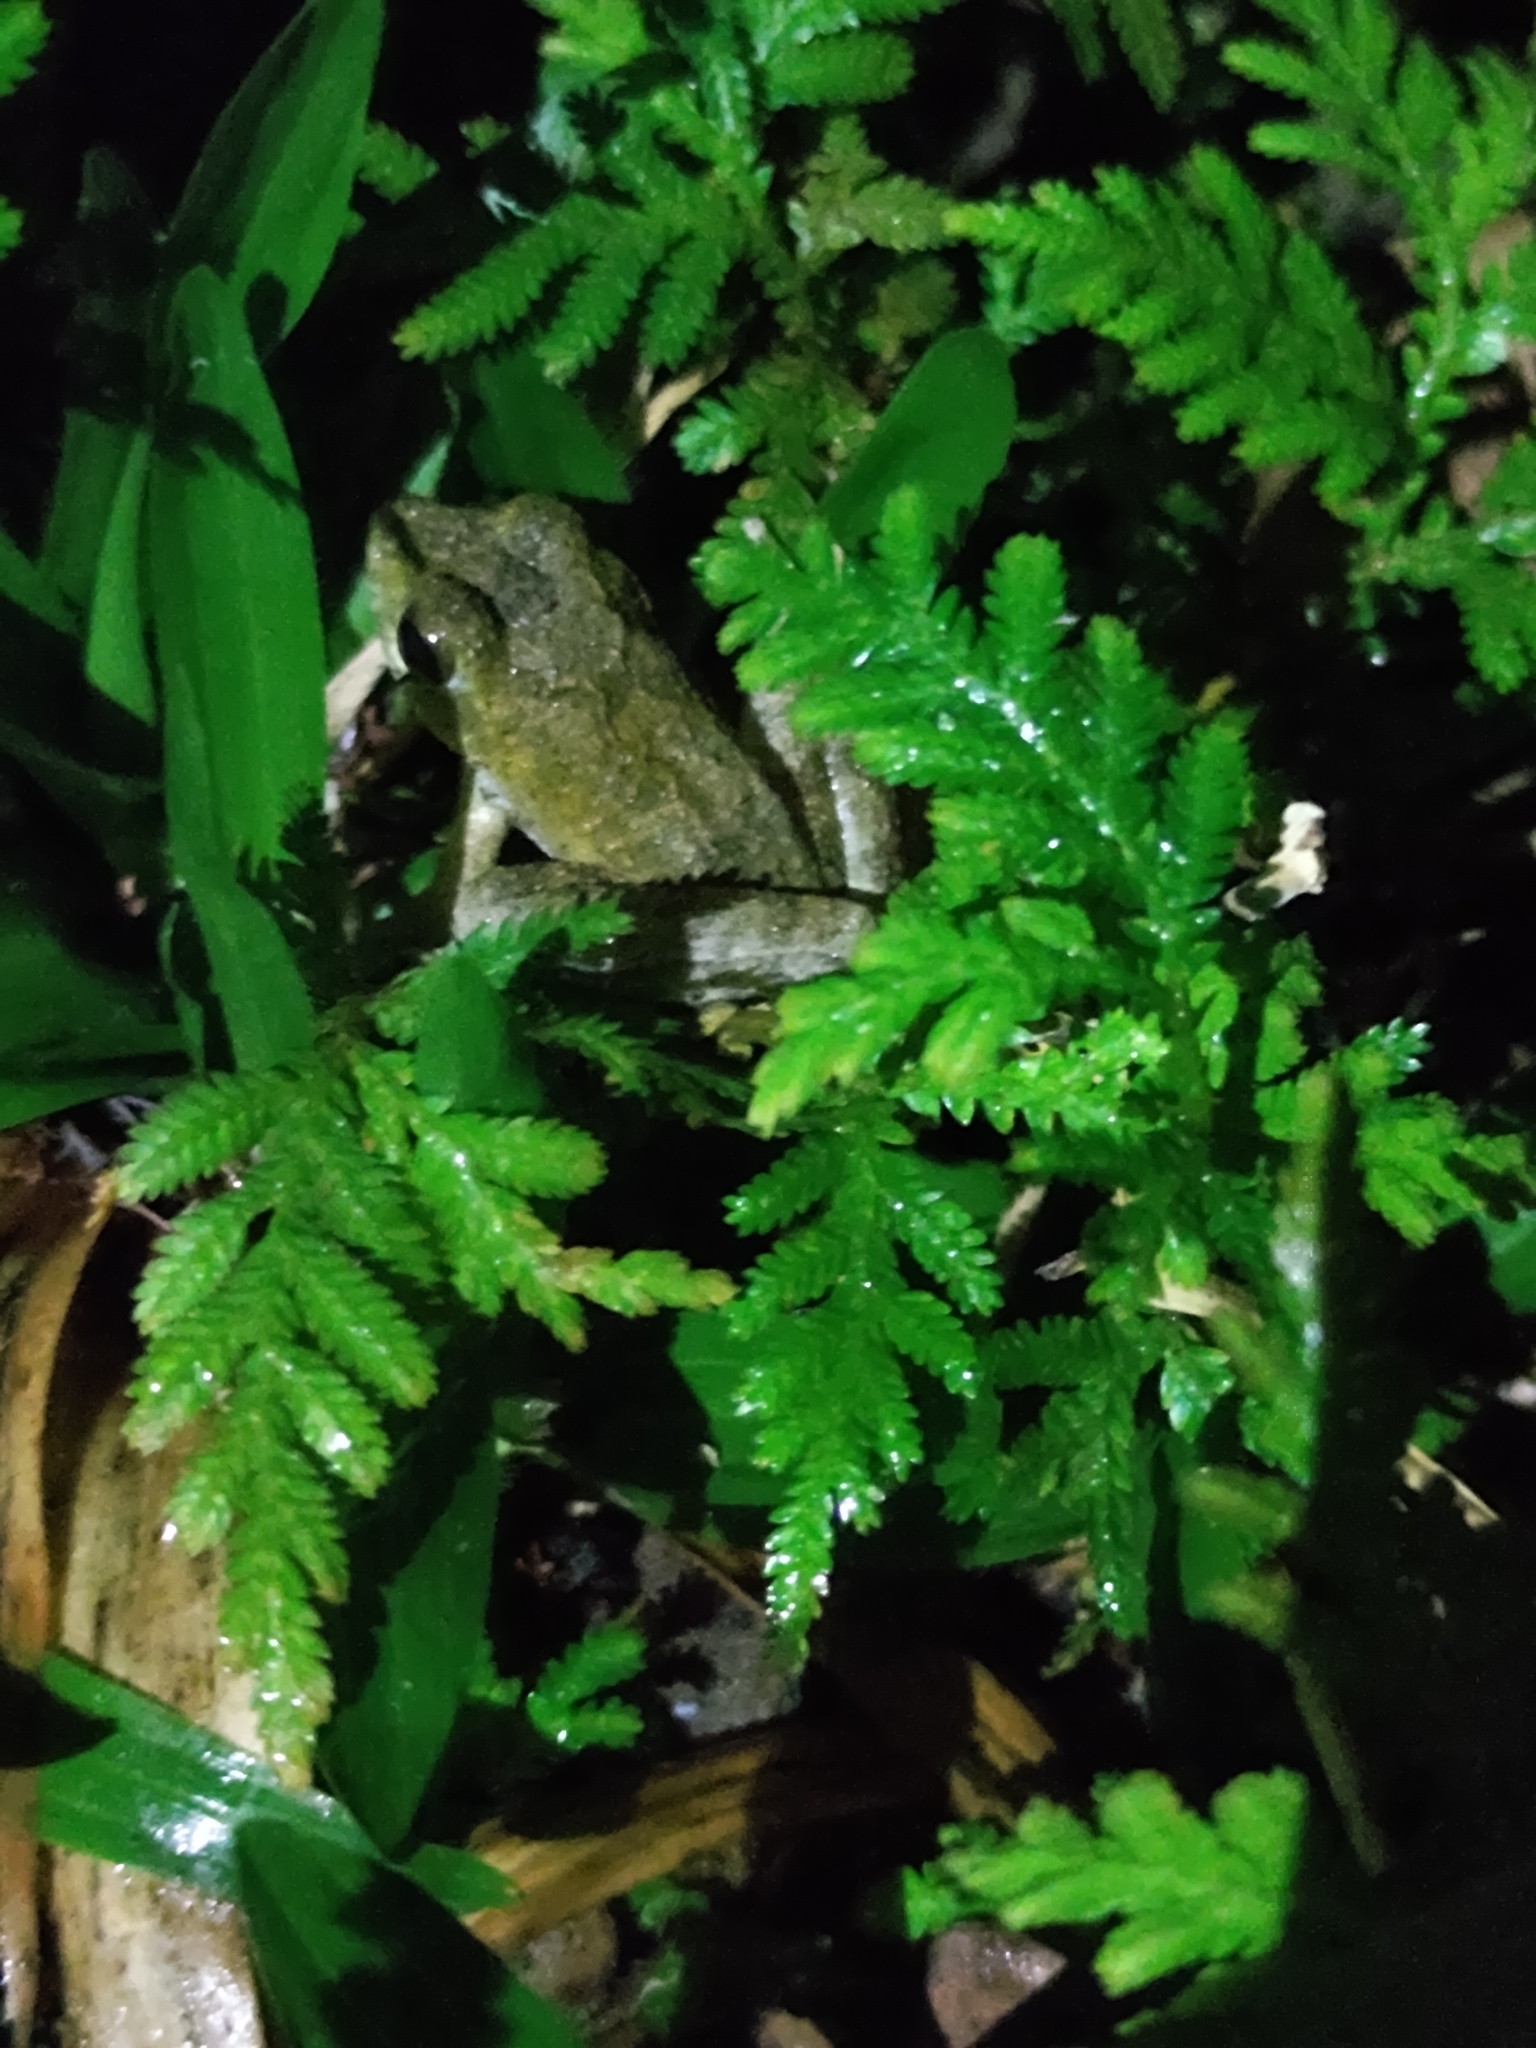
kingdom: Animalia
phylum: Chordata
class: Amphibia
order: Anura
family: Rhacophoridae
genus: Buergeria
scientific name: Buergeria otai
